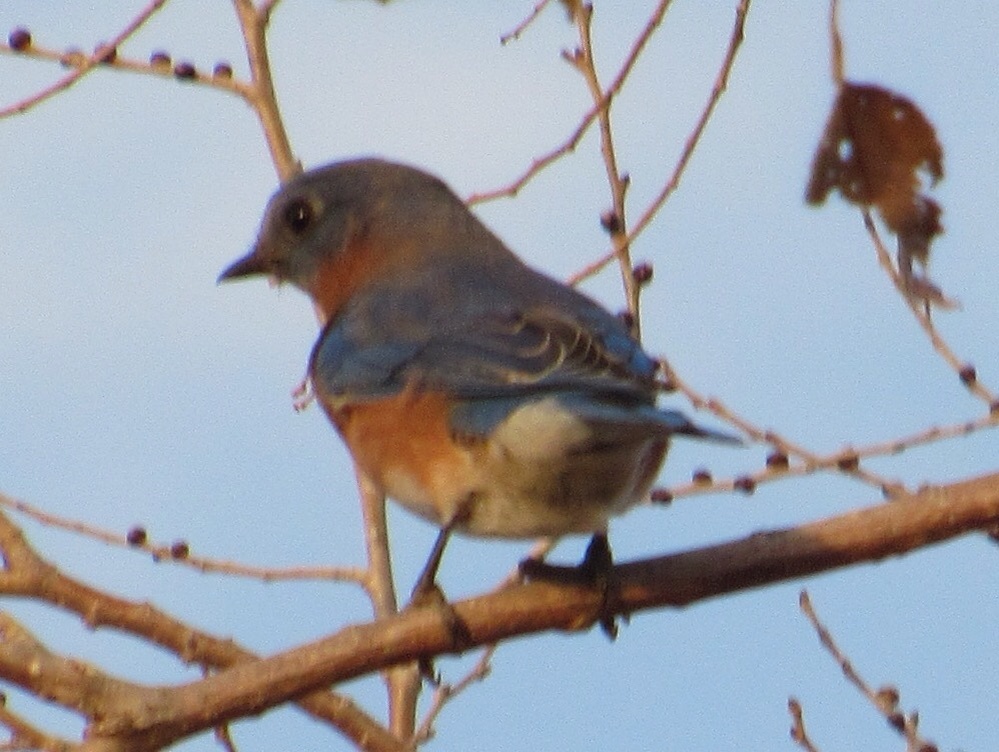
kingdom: Animalia
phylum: Chordata
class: Aves
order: Passeriformes
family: Turdidae
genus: Sialia
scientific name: Sialia sialis
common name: Eastern bluebird
